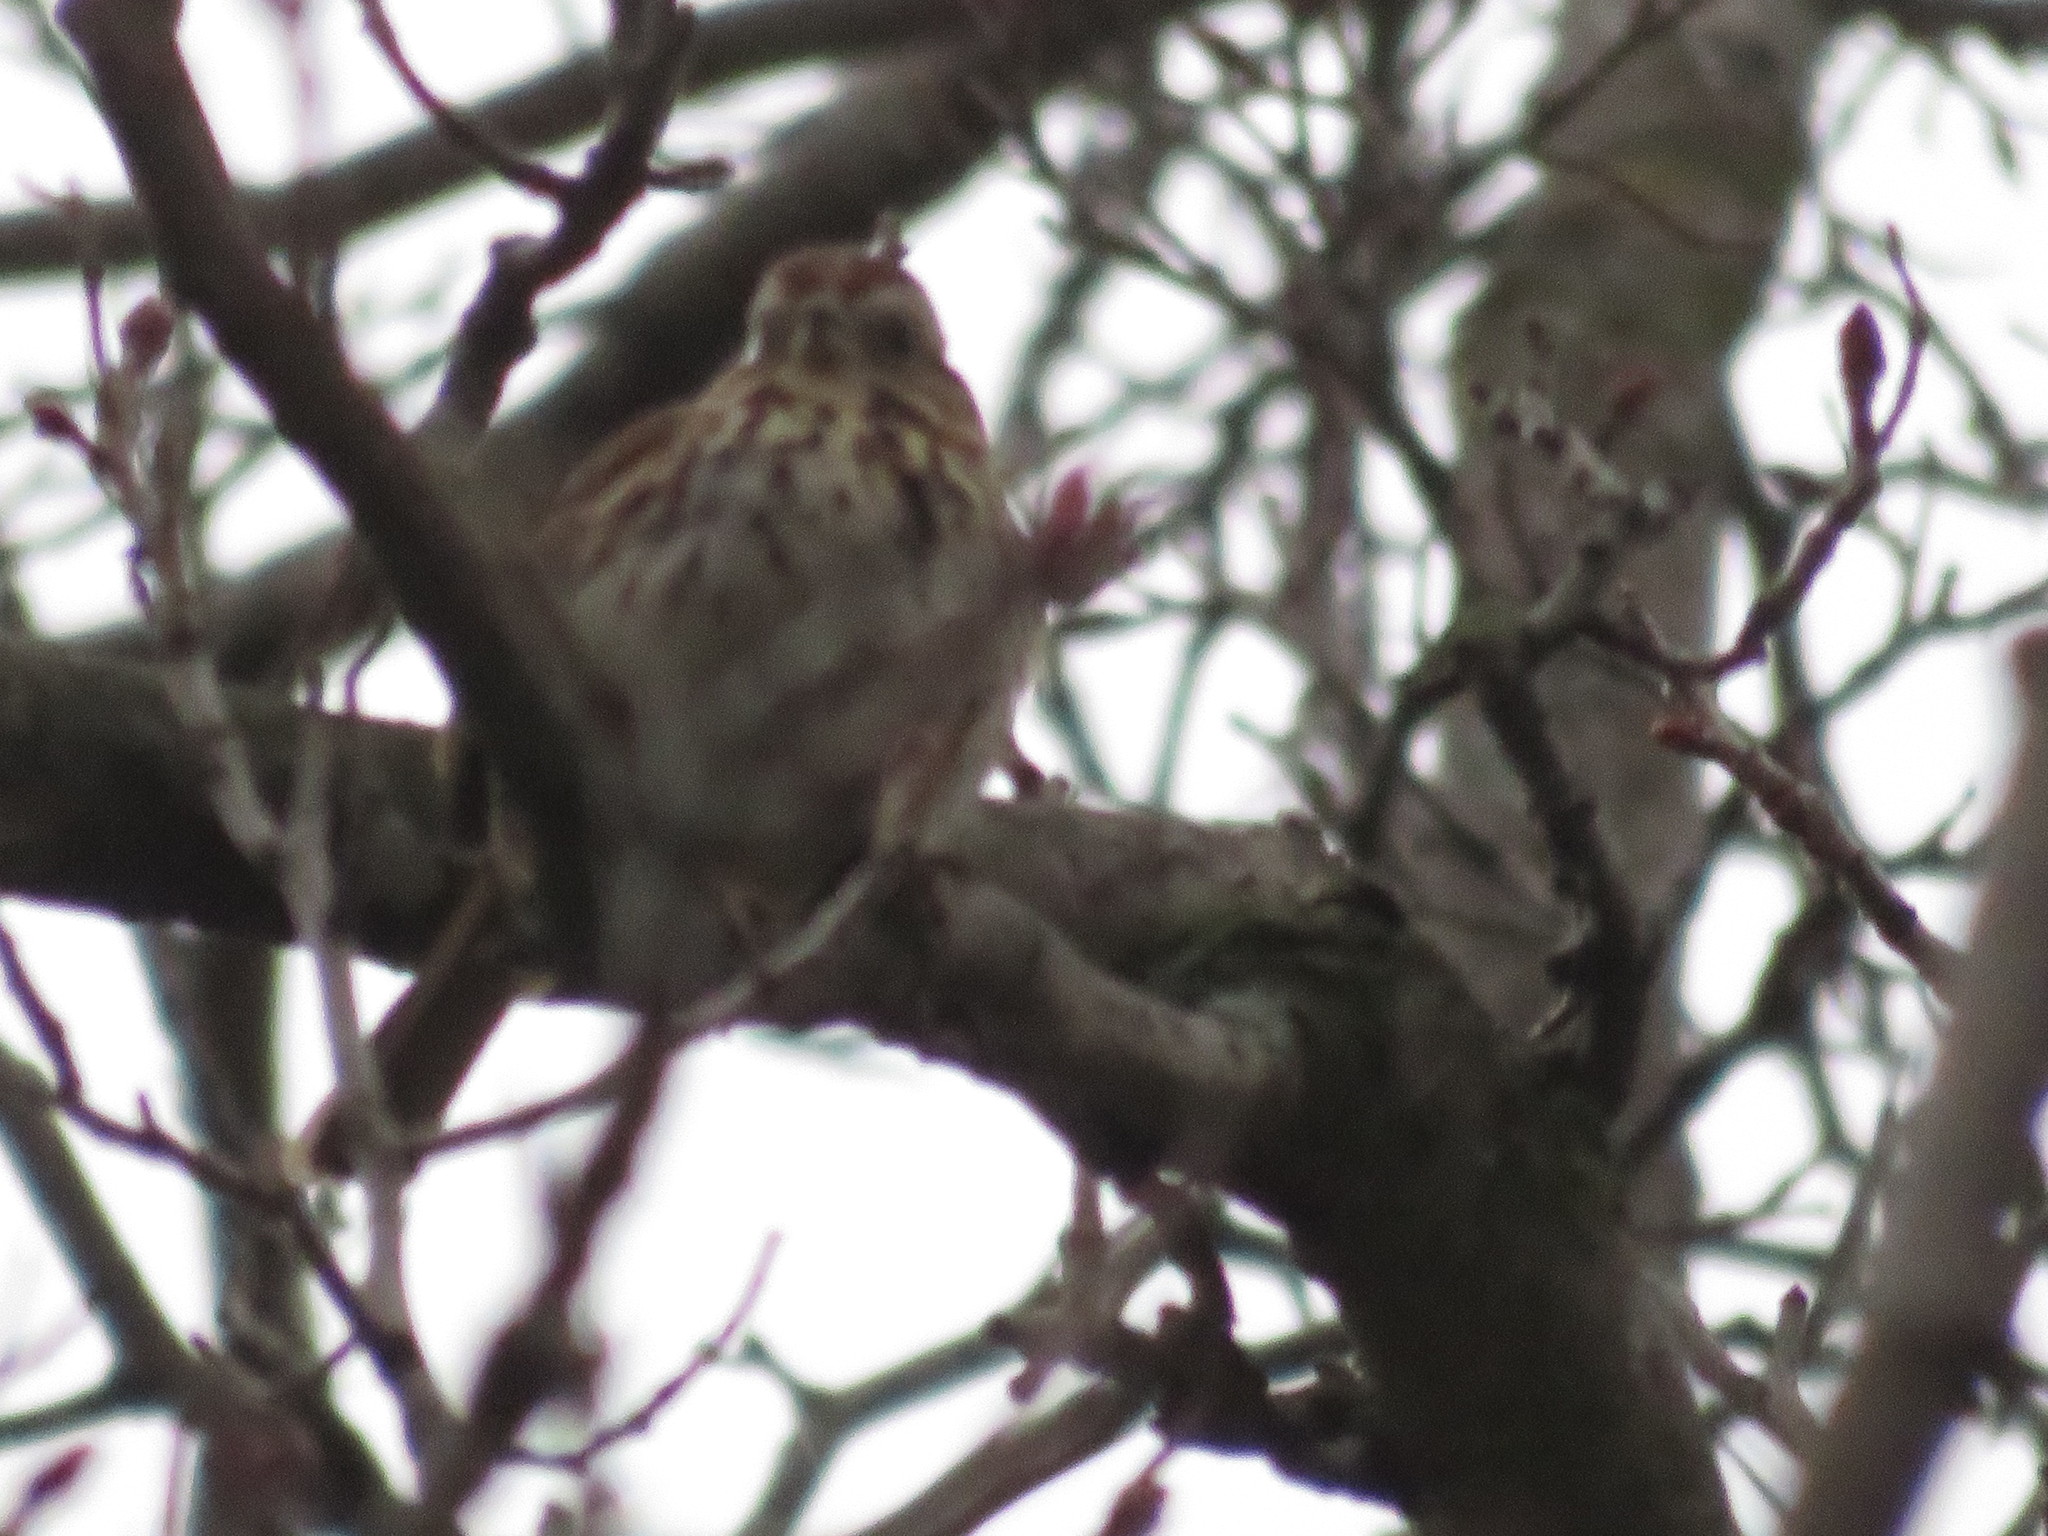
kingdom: Animalia
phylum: Chordata
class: Aves
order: Passeriformes
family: Passerellidae
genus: Melospiza
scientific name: Melospiza melodia
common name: Song sparrow
